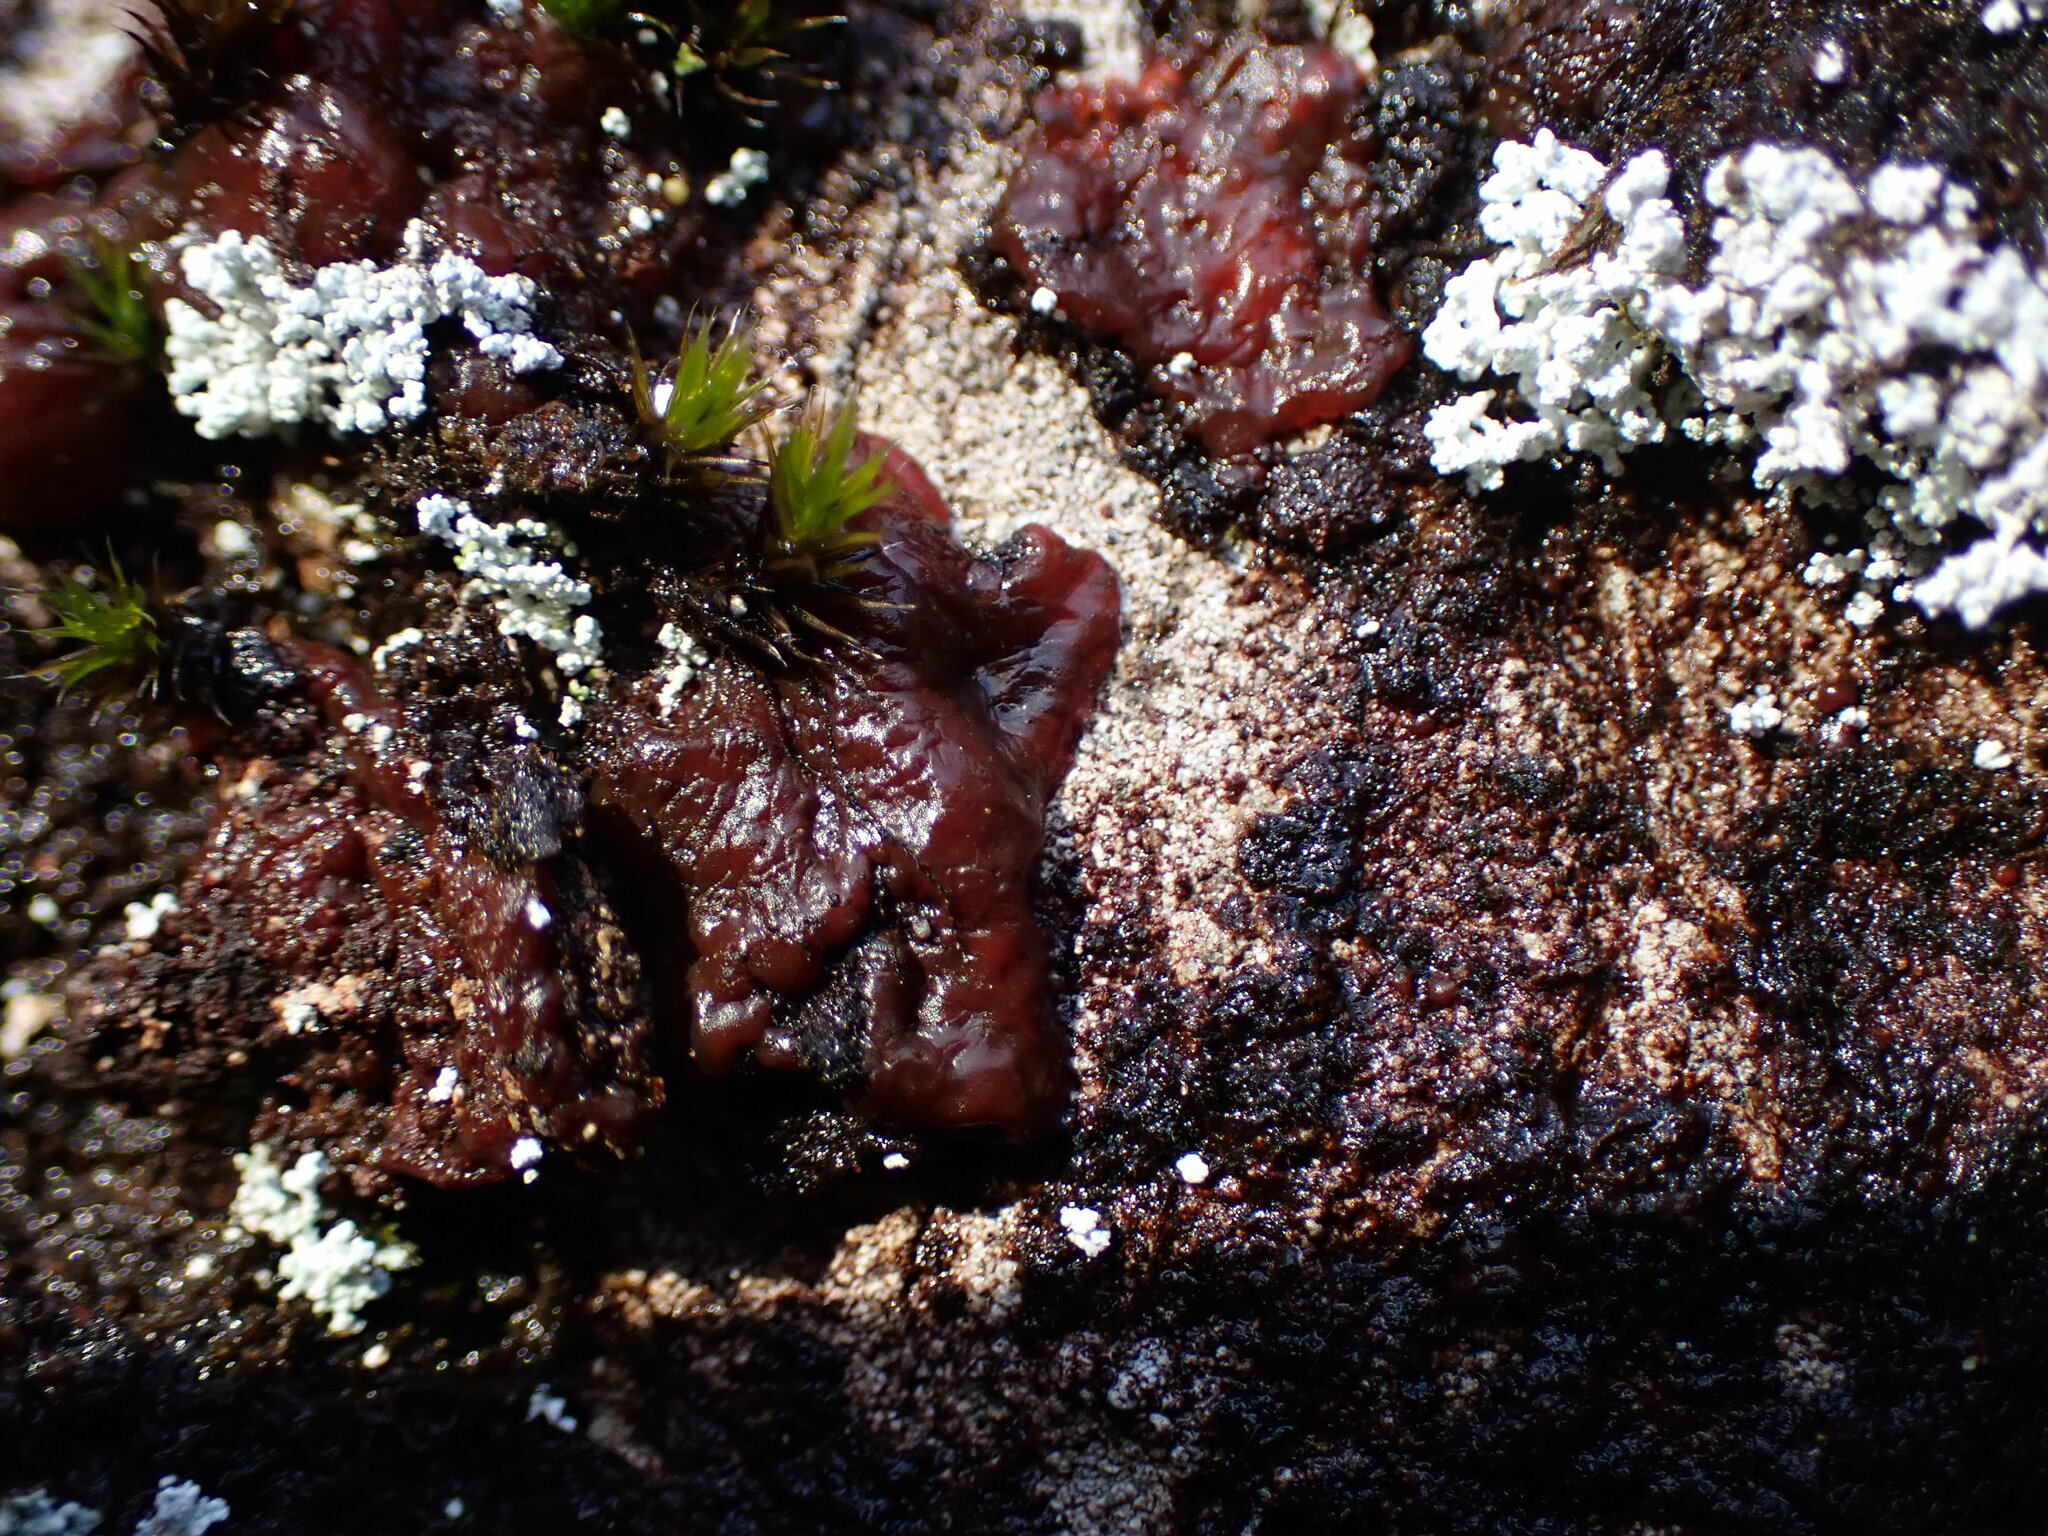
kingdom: Bacteria
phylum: Cyanobacteria
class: Cyanobacteriia
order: Cyanobacteriales
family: Chroococcidiopsidaceae
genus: Gloeocapsopsis
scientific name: Gloeocapsopsis magma
